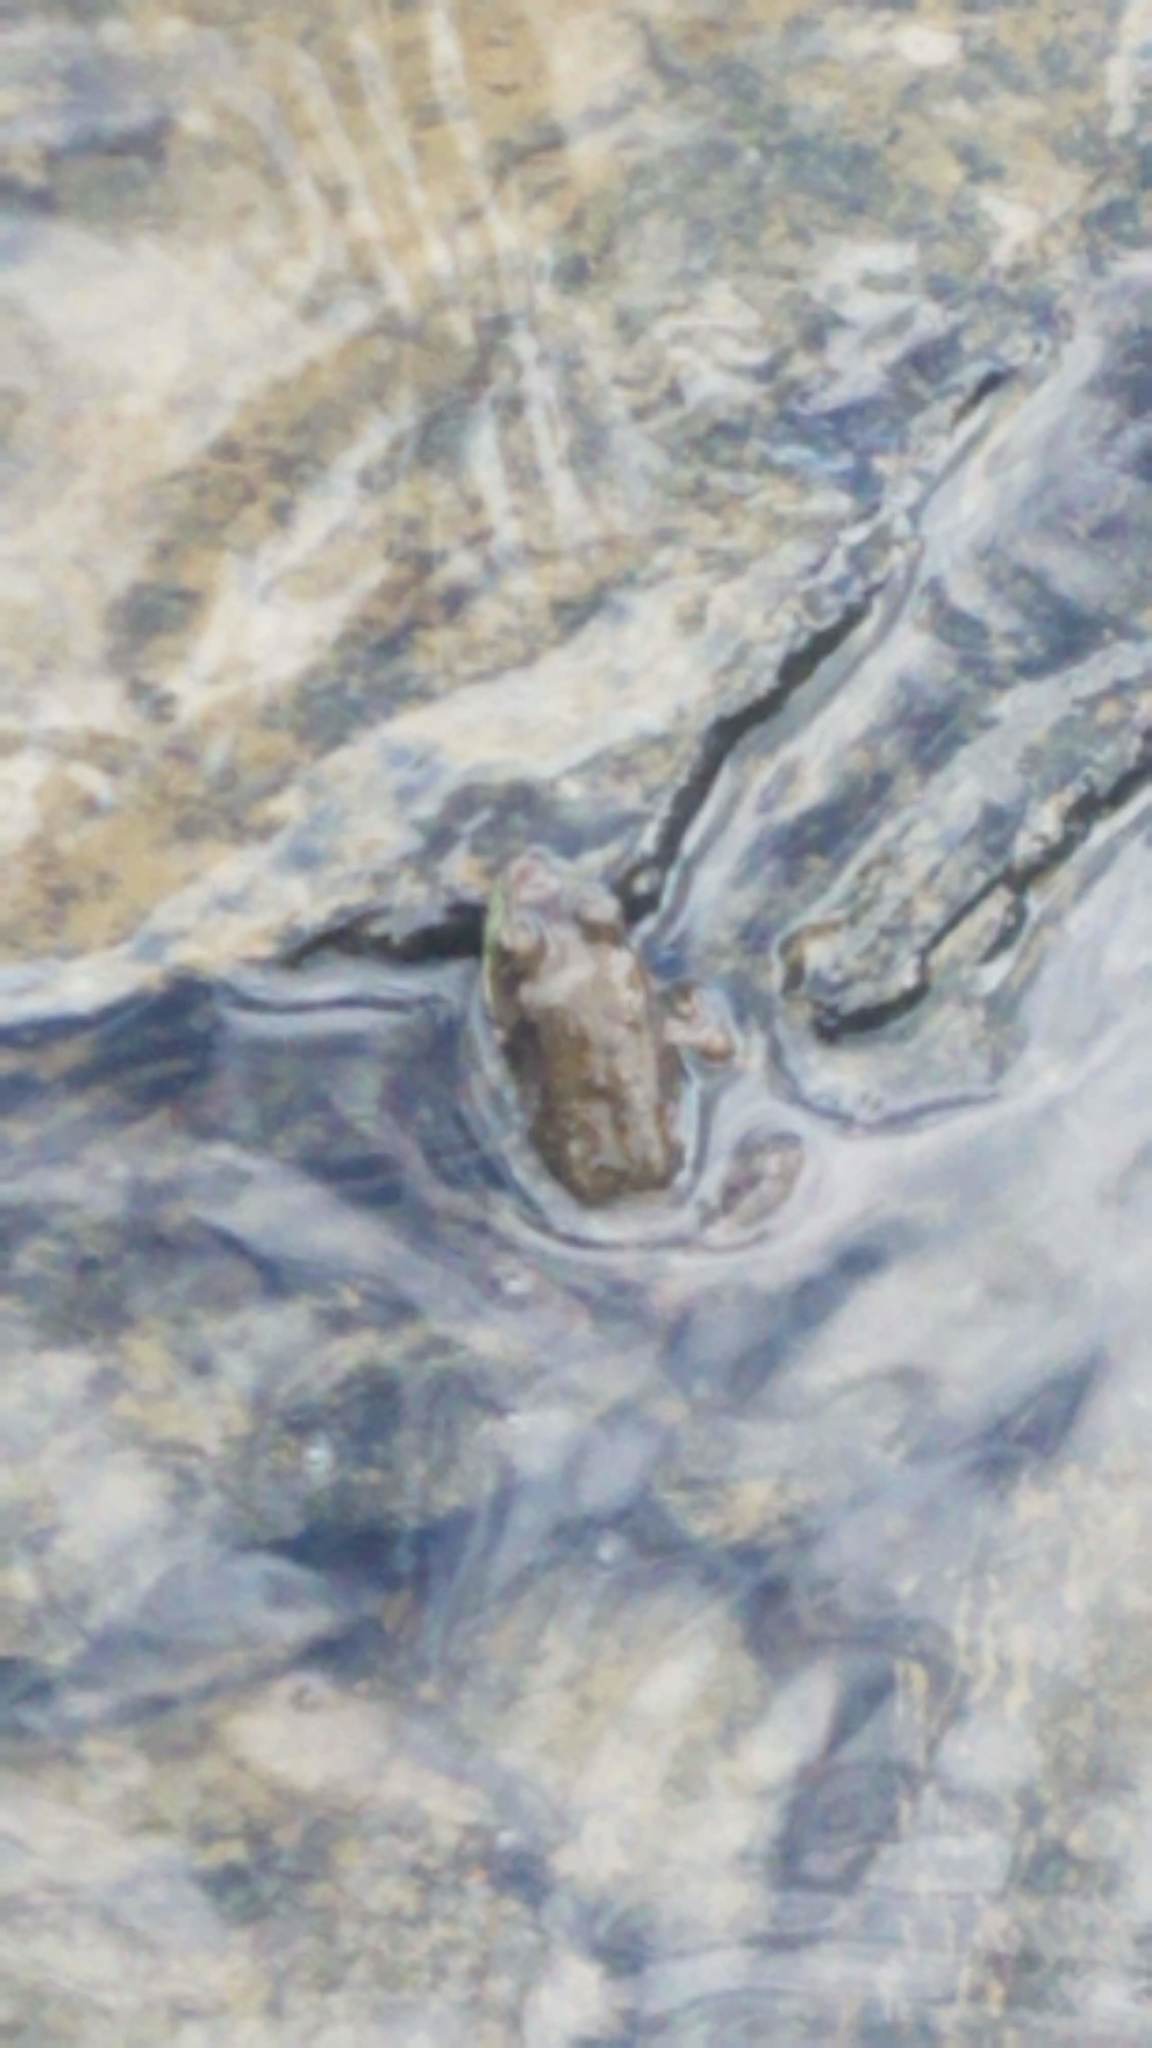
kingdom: Animalia
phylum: Chordata
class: Amphibia
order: Anura
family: Ranidae
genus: Lithobates
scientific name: Lithobates clamitans
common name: Green frog
